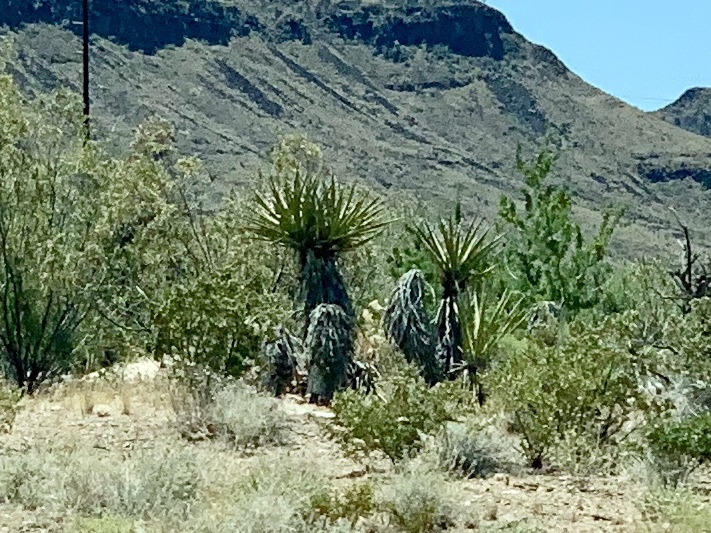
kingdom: Plantae
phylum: Tracheophyta
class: Liliopsida
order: Asparagales
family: Asparagaceae
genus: Yucca
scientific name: Yucca schidigera
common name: Mojave yucca
